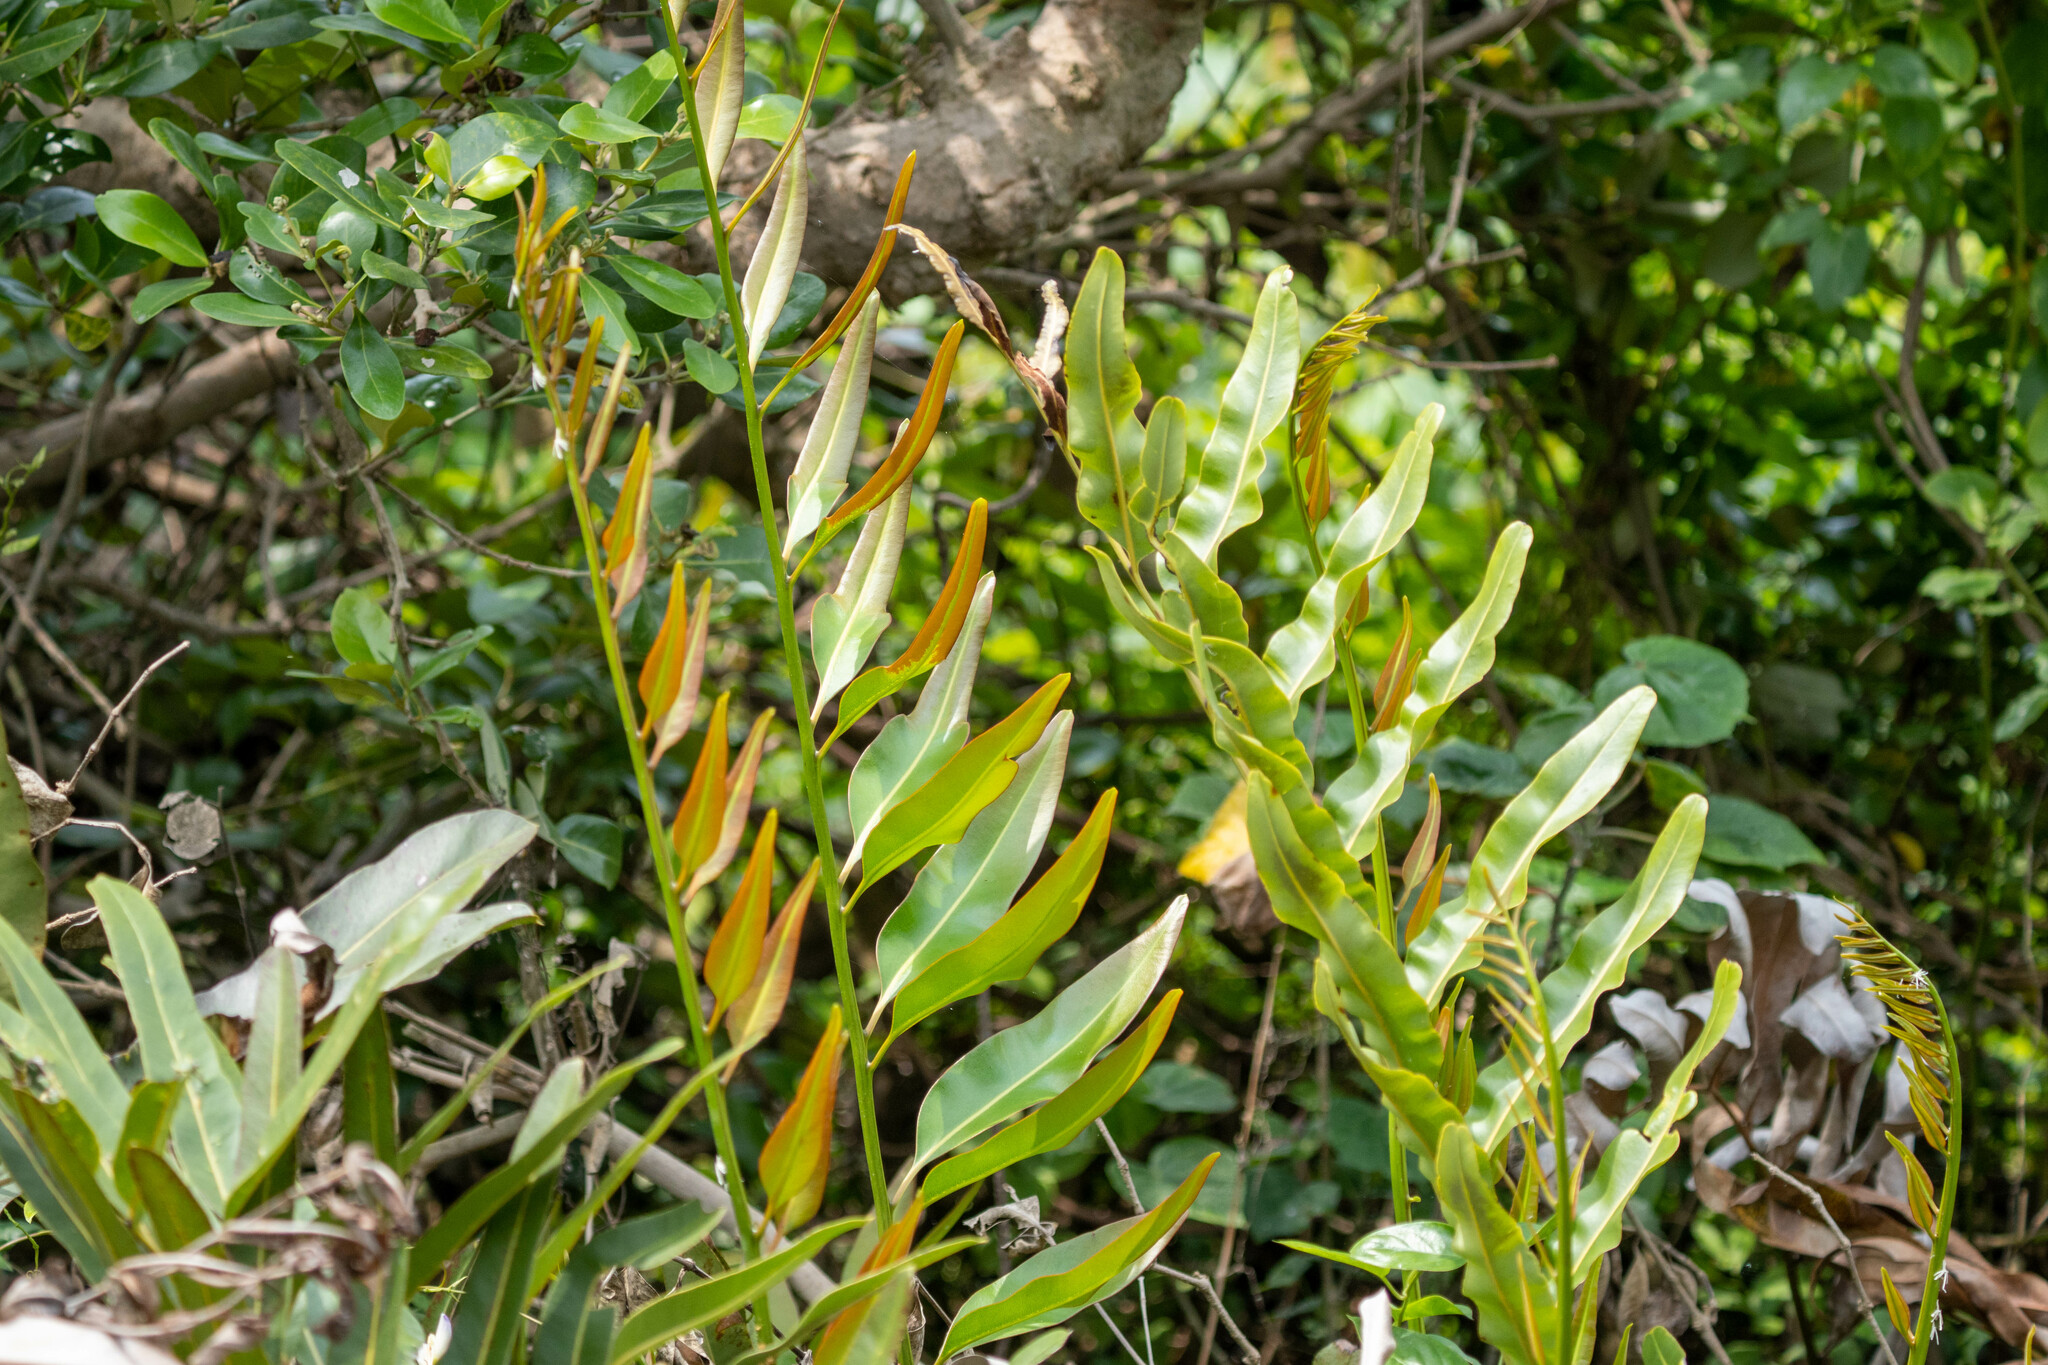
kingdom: Plantae
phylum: Tracheophyta
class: Polypodiopsida
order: Polypodiales
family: Pteridaceae
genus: Acrostichum
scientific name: Acrostichum aureum
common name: Leather fern
